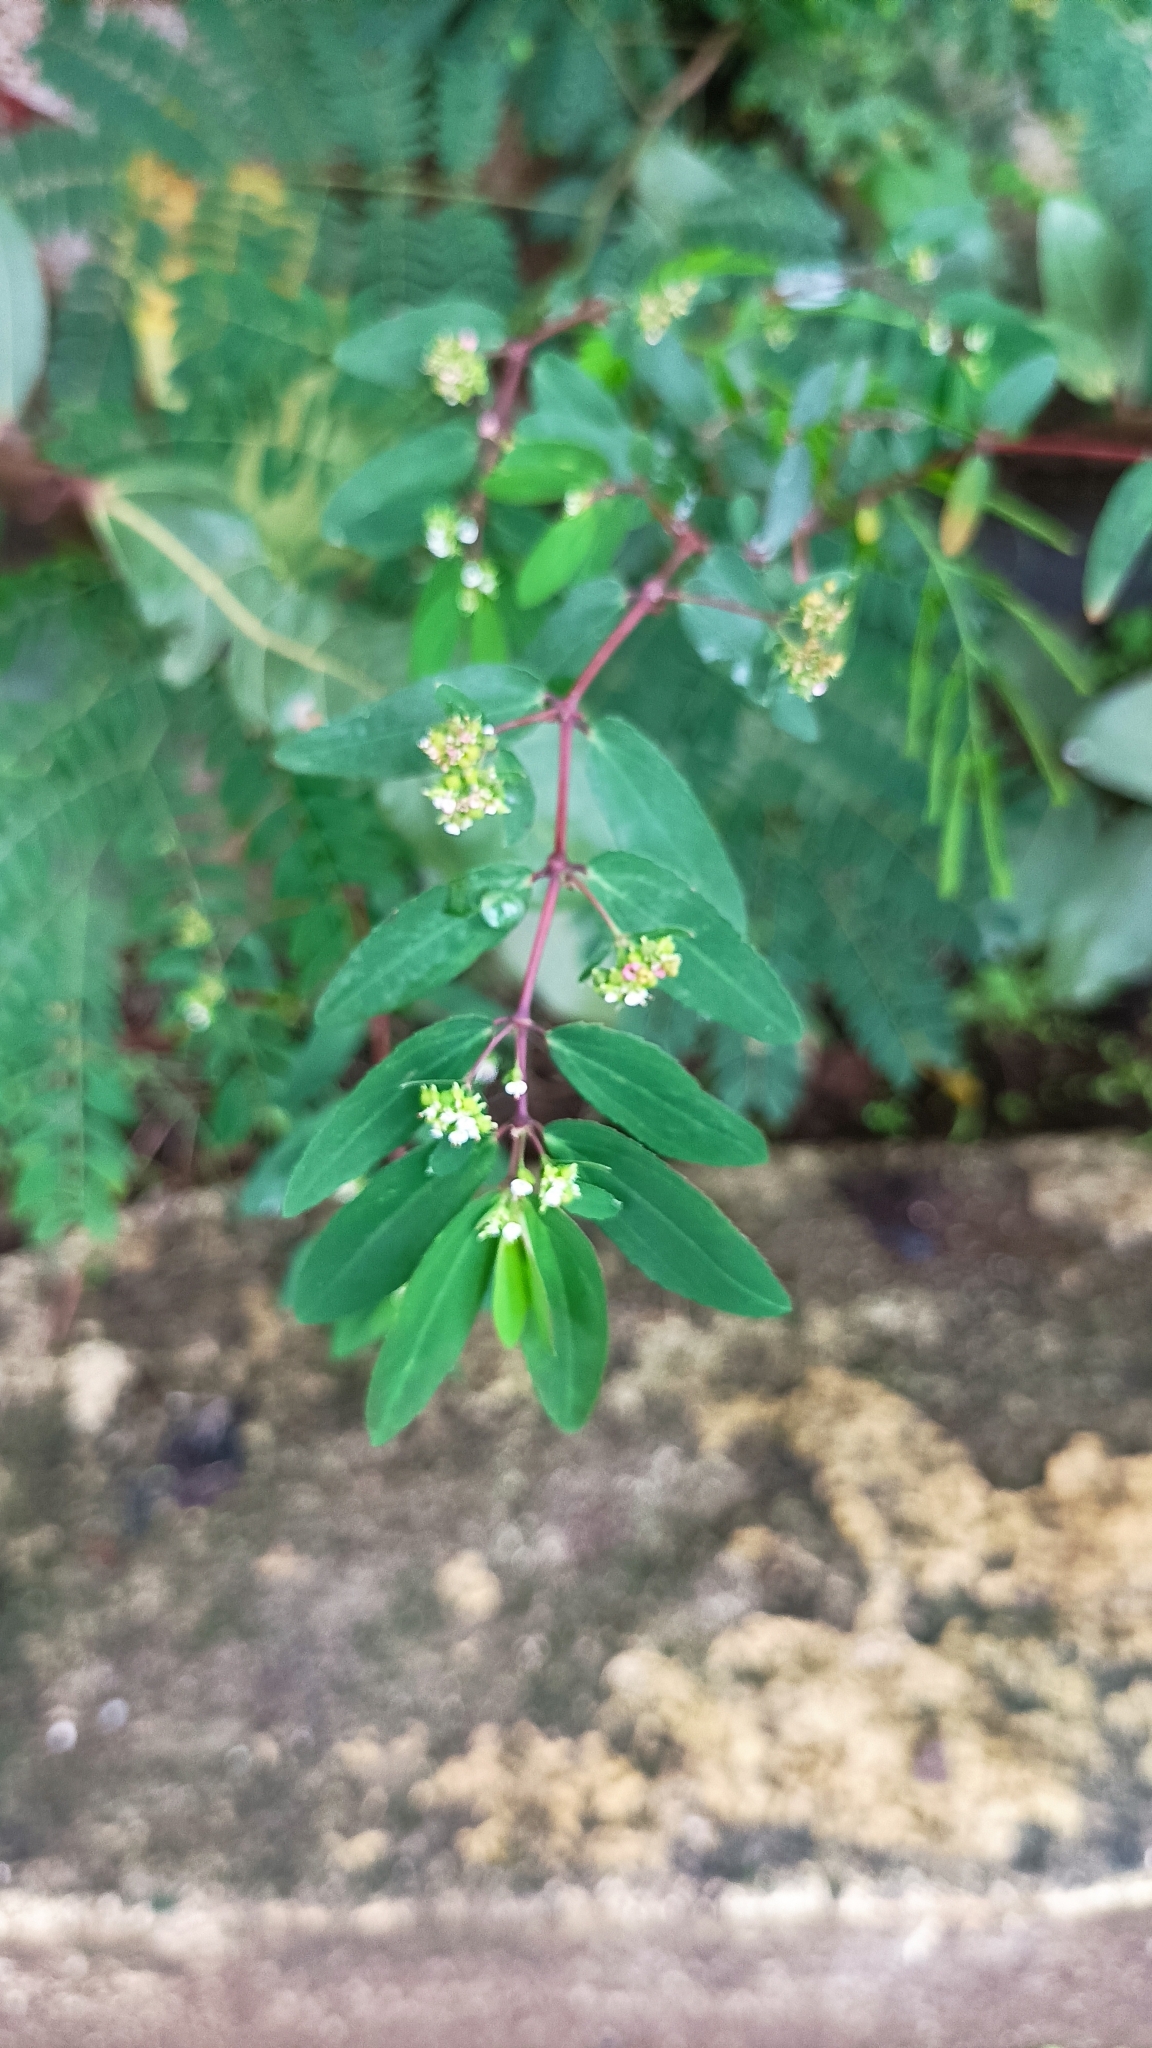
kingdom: Plantae
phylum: Tracheophyta
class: Magnoliopsida
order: Malpighiales
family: Euphorbiaceae
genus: Euphorbia
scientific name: Euphorbia hypericifolia
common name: Graceful sandmat
